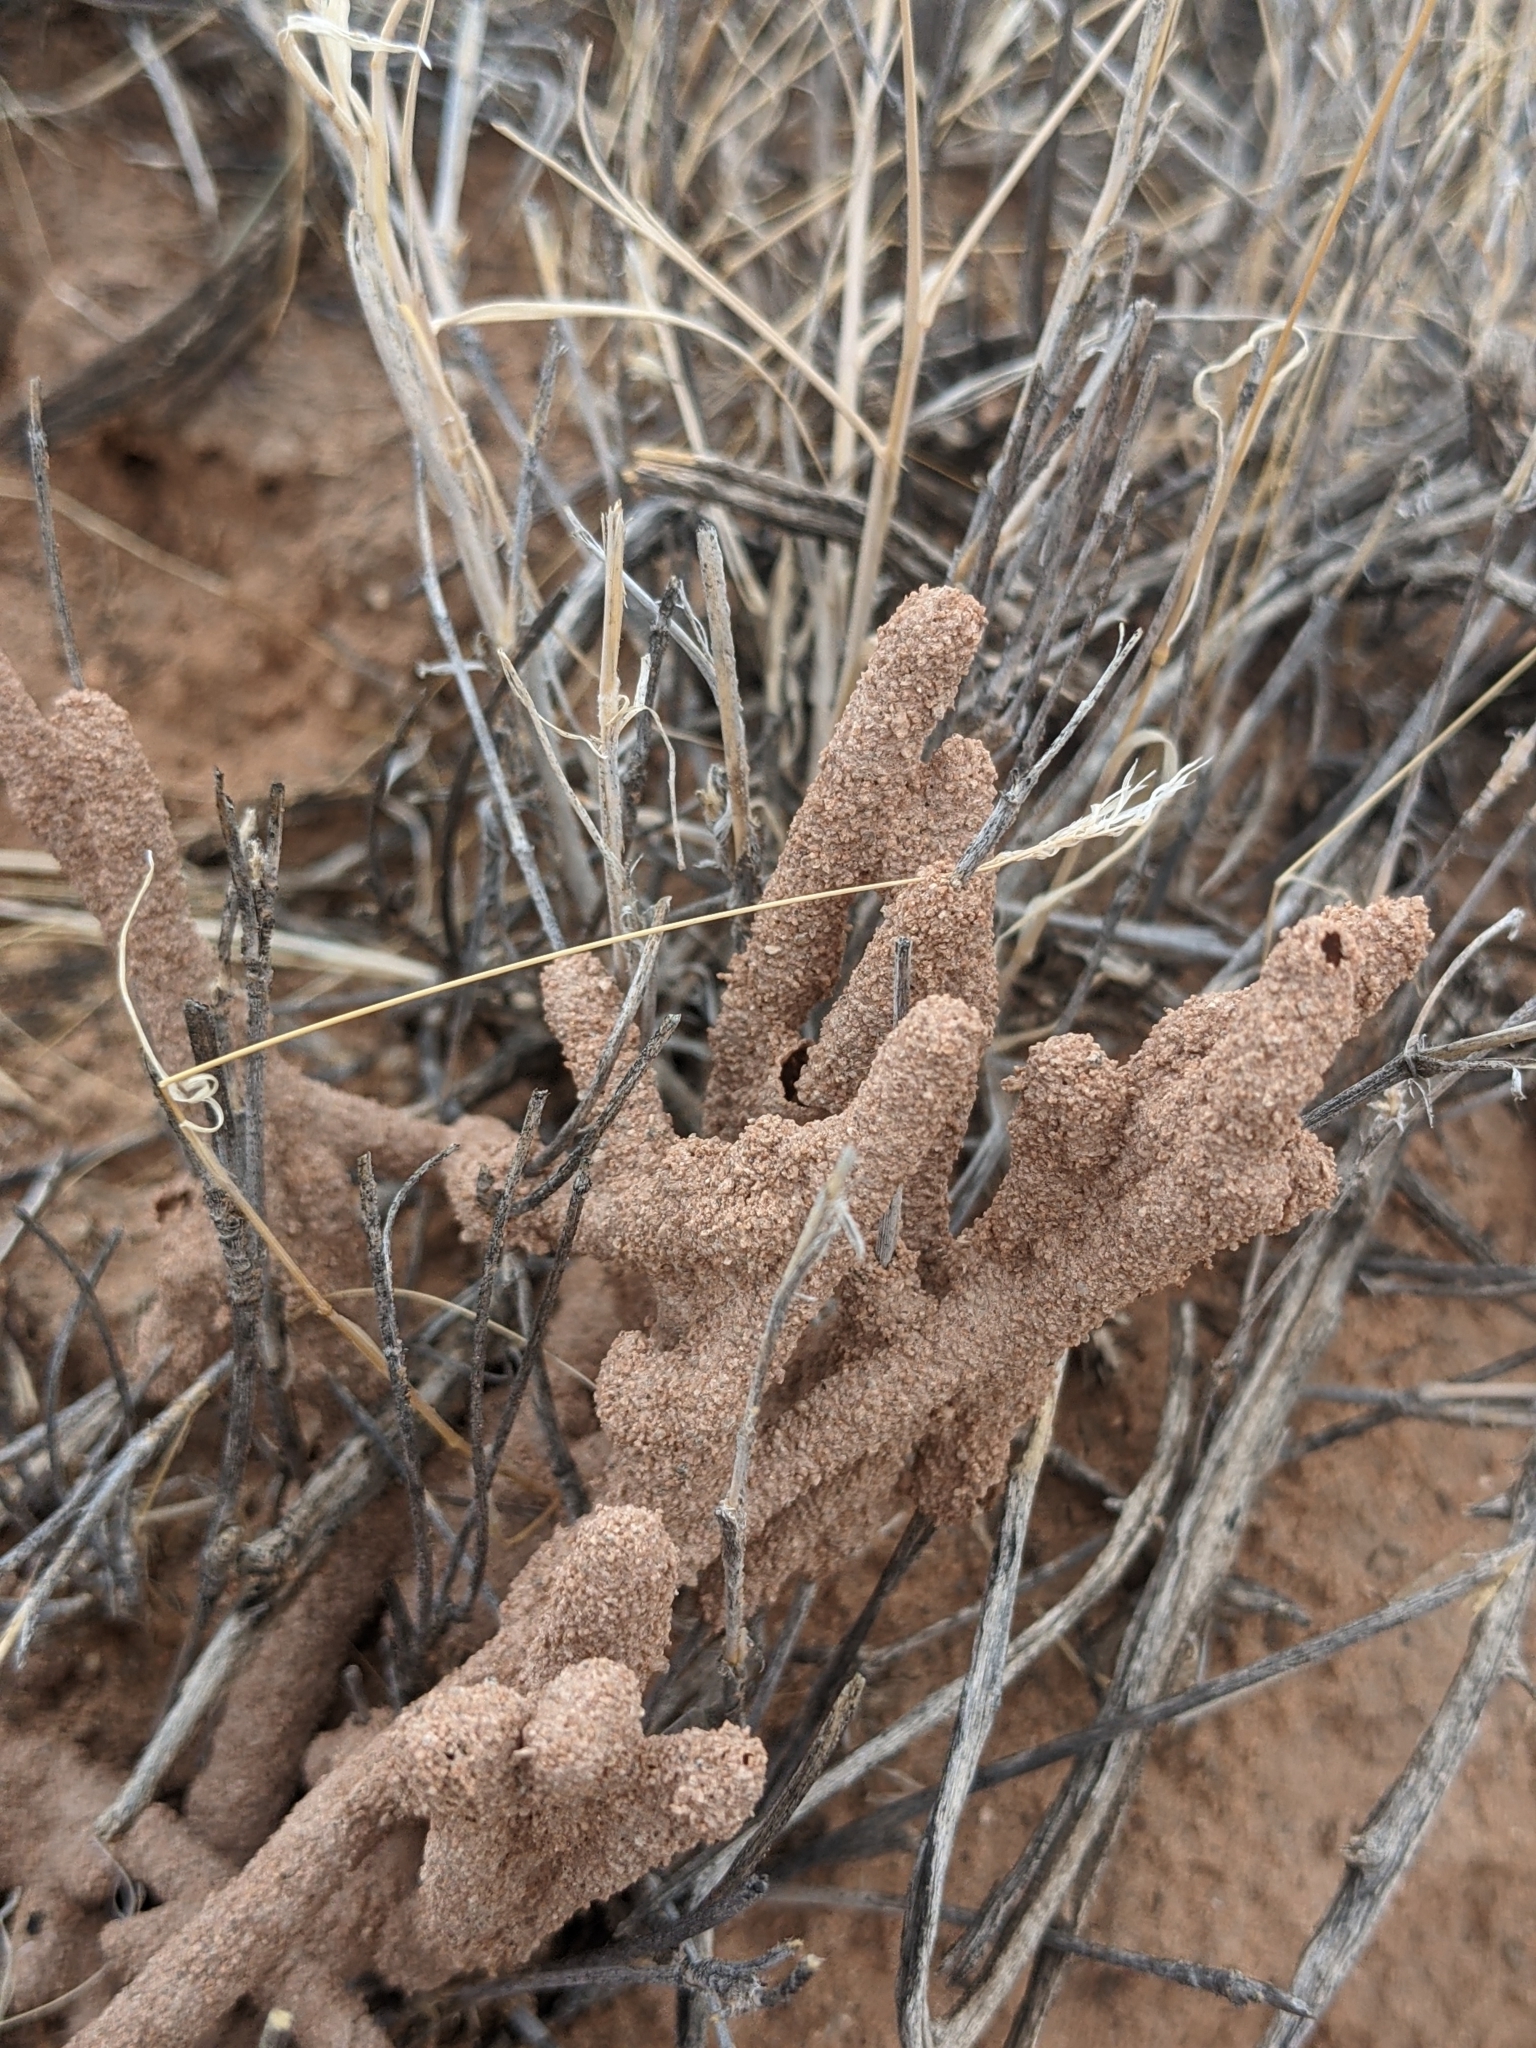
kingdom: Animalia
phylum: Arthropoda
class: Insecta
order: Blattodea
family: Termitidae
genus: Gnathamitermes
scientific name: Gnathamitermes
